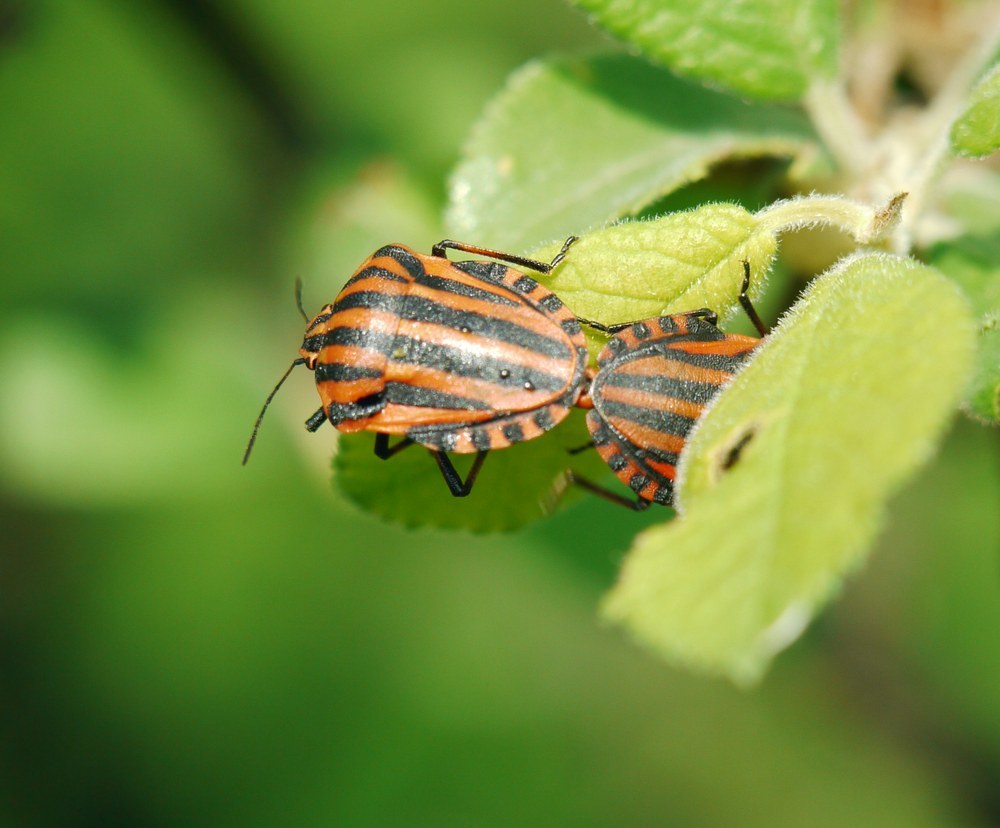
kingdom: Animalia
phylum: Arthropoda
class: Insecta
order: Hemiptera
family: Pentatomidae
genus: Graphosoma
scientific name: Graphosoma italicum
